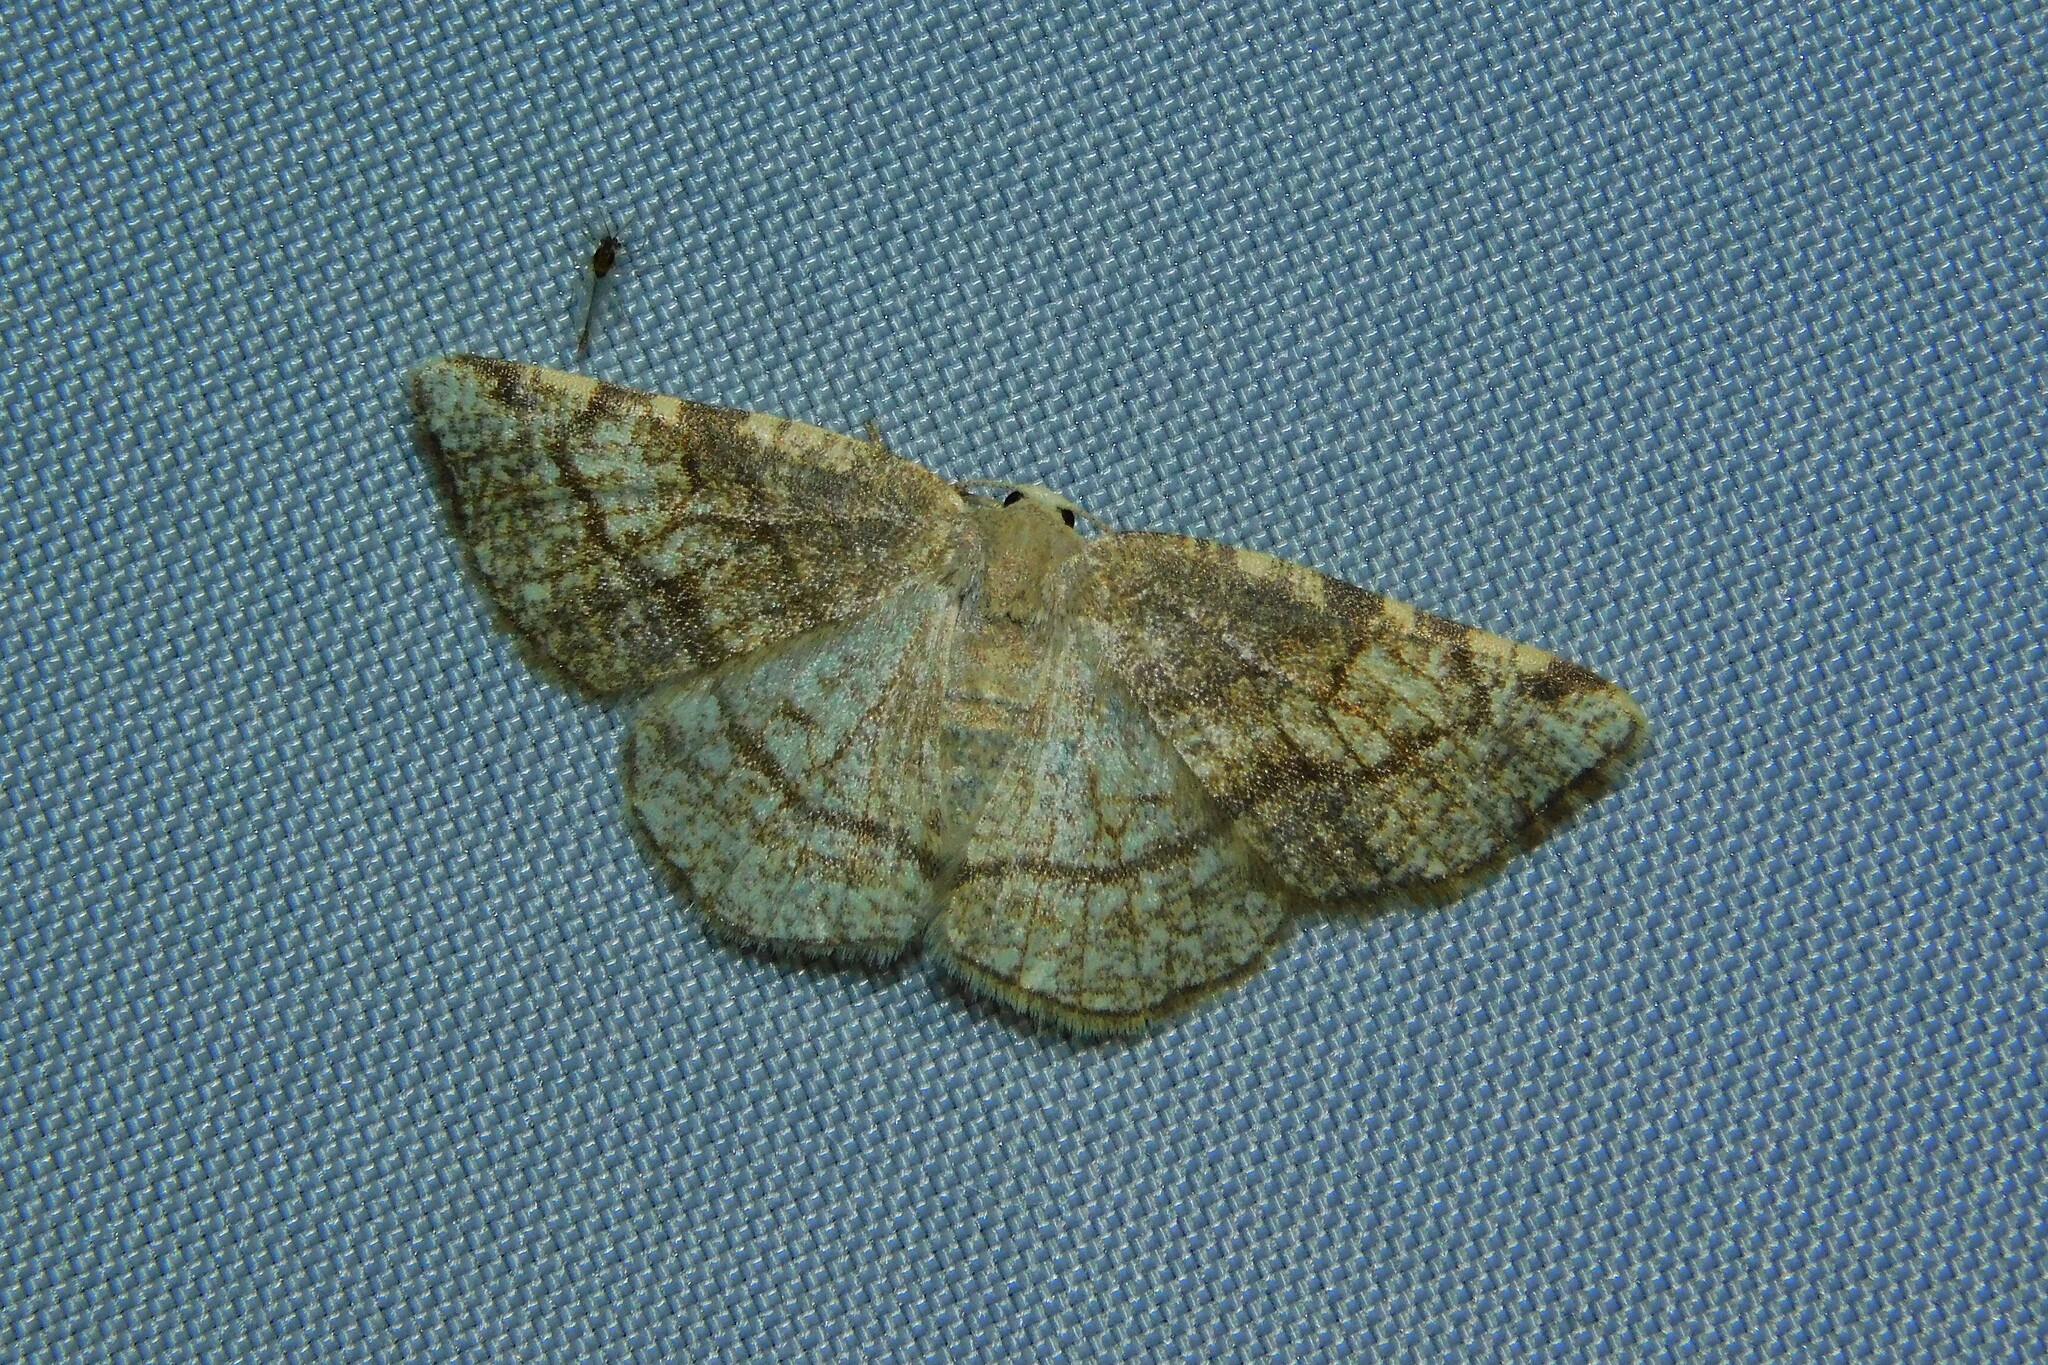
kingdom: Animalia
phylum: Arthropoda
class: Insecta
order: Lepidoptera
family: Geometridae
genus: Stegania
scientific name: Stegania trimaculata
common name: Dorset cream wave
